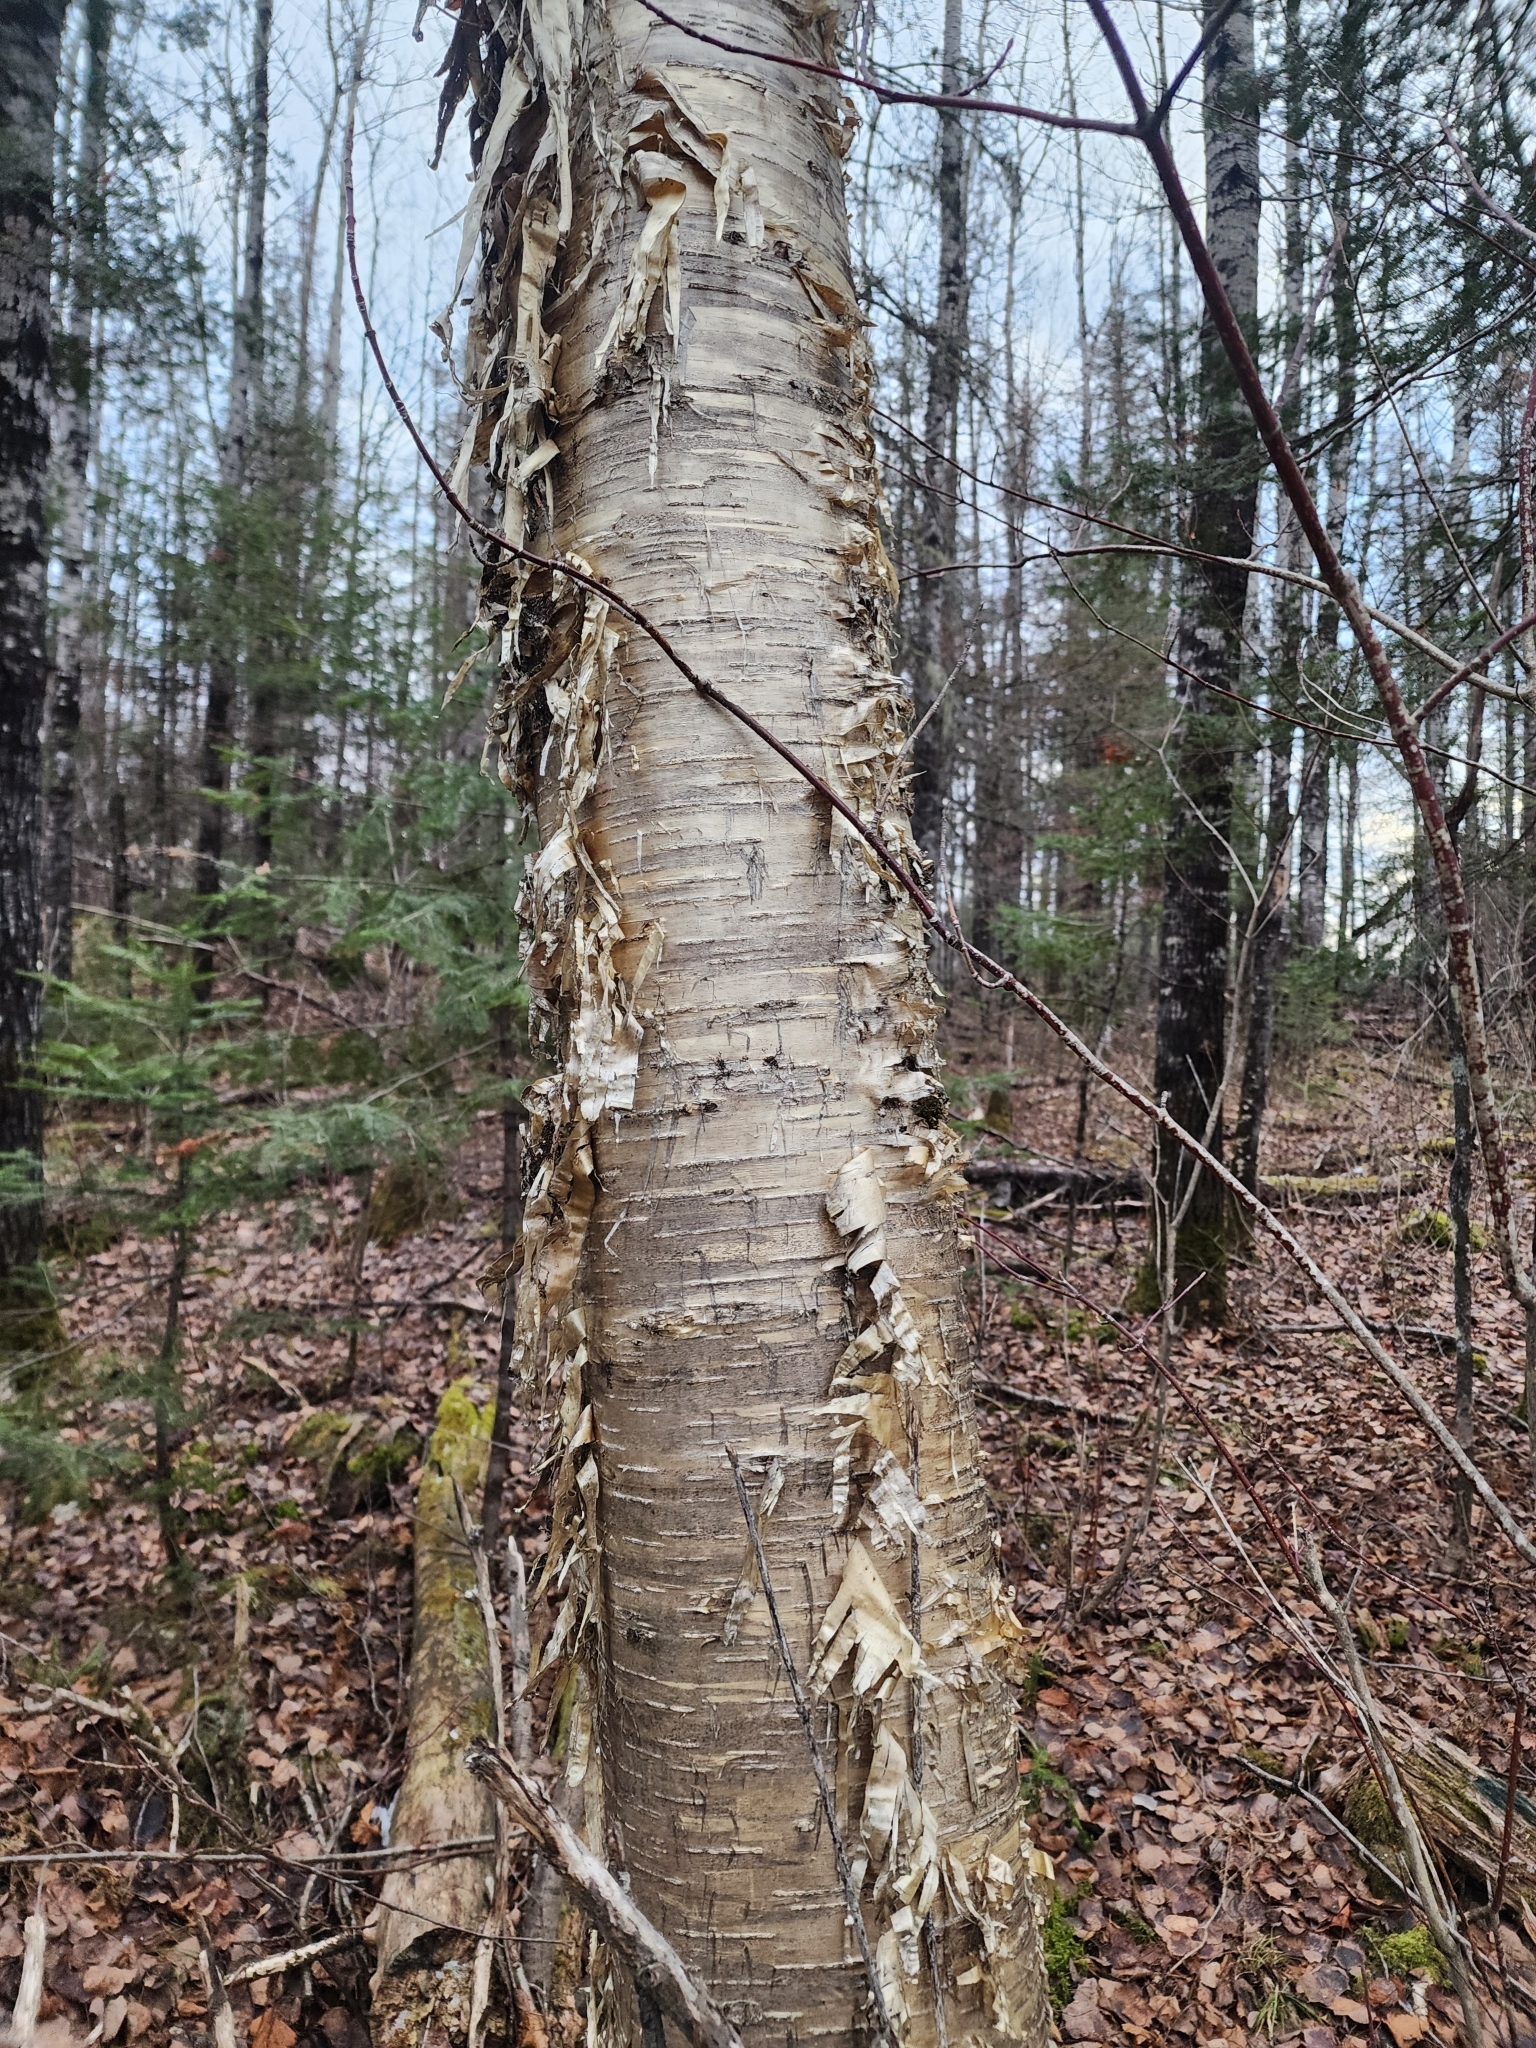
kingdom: Plantae
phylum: Tracheophyta
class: Magnoliopsida
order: Fagales
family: Betulaceae
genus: Betula
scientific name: Betula alleghaniensis
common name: Yellow birch
